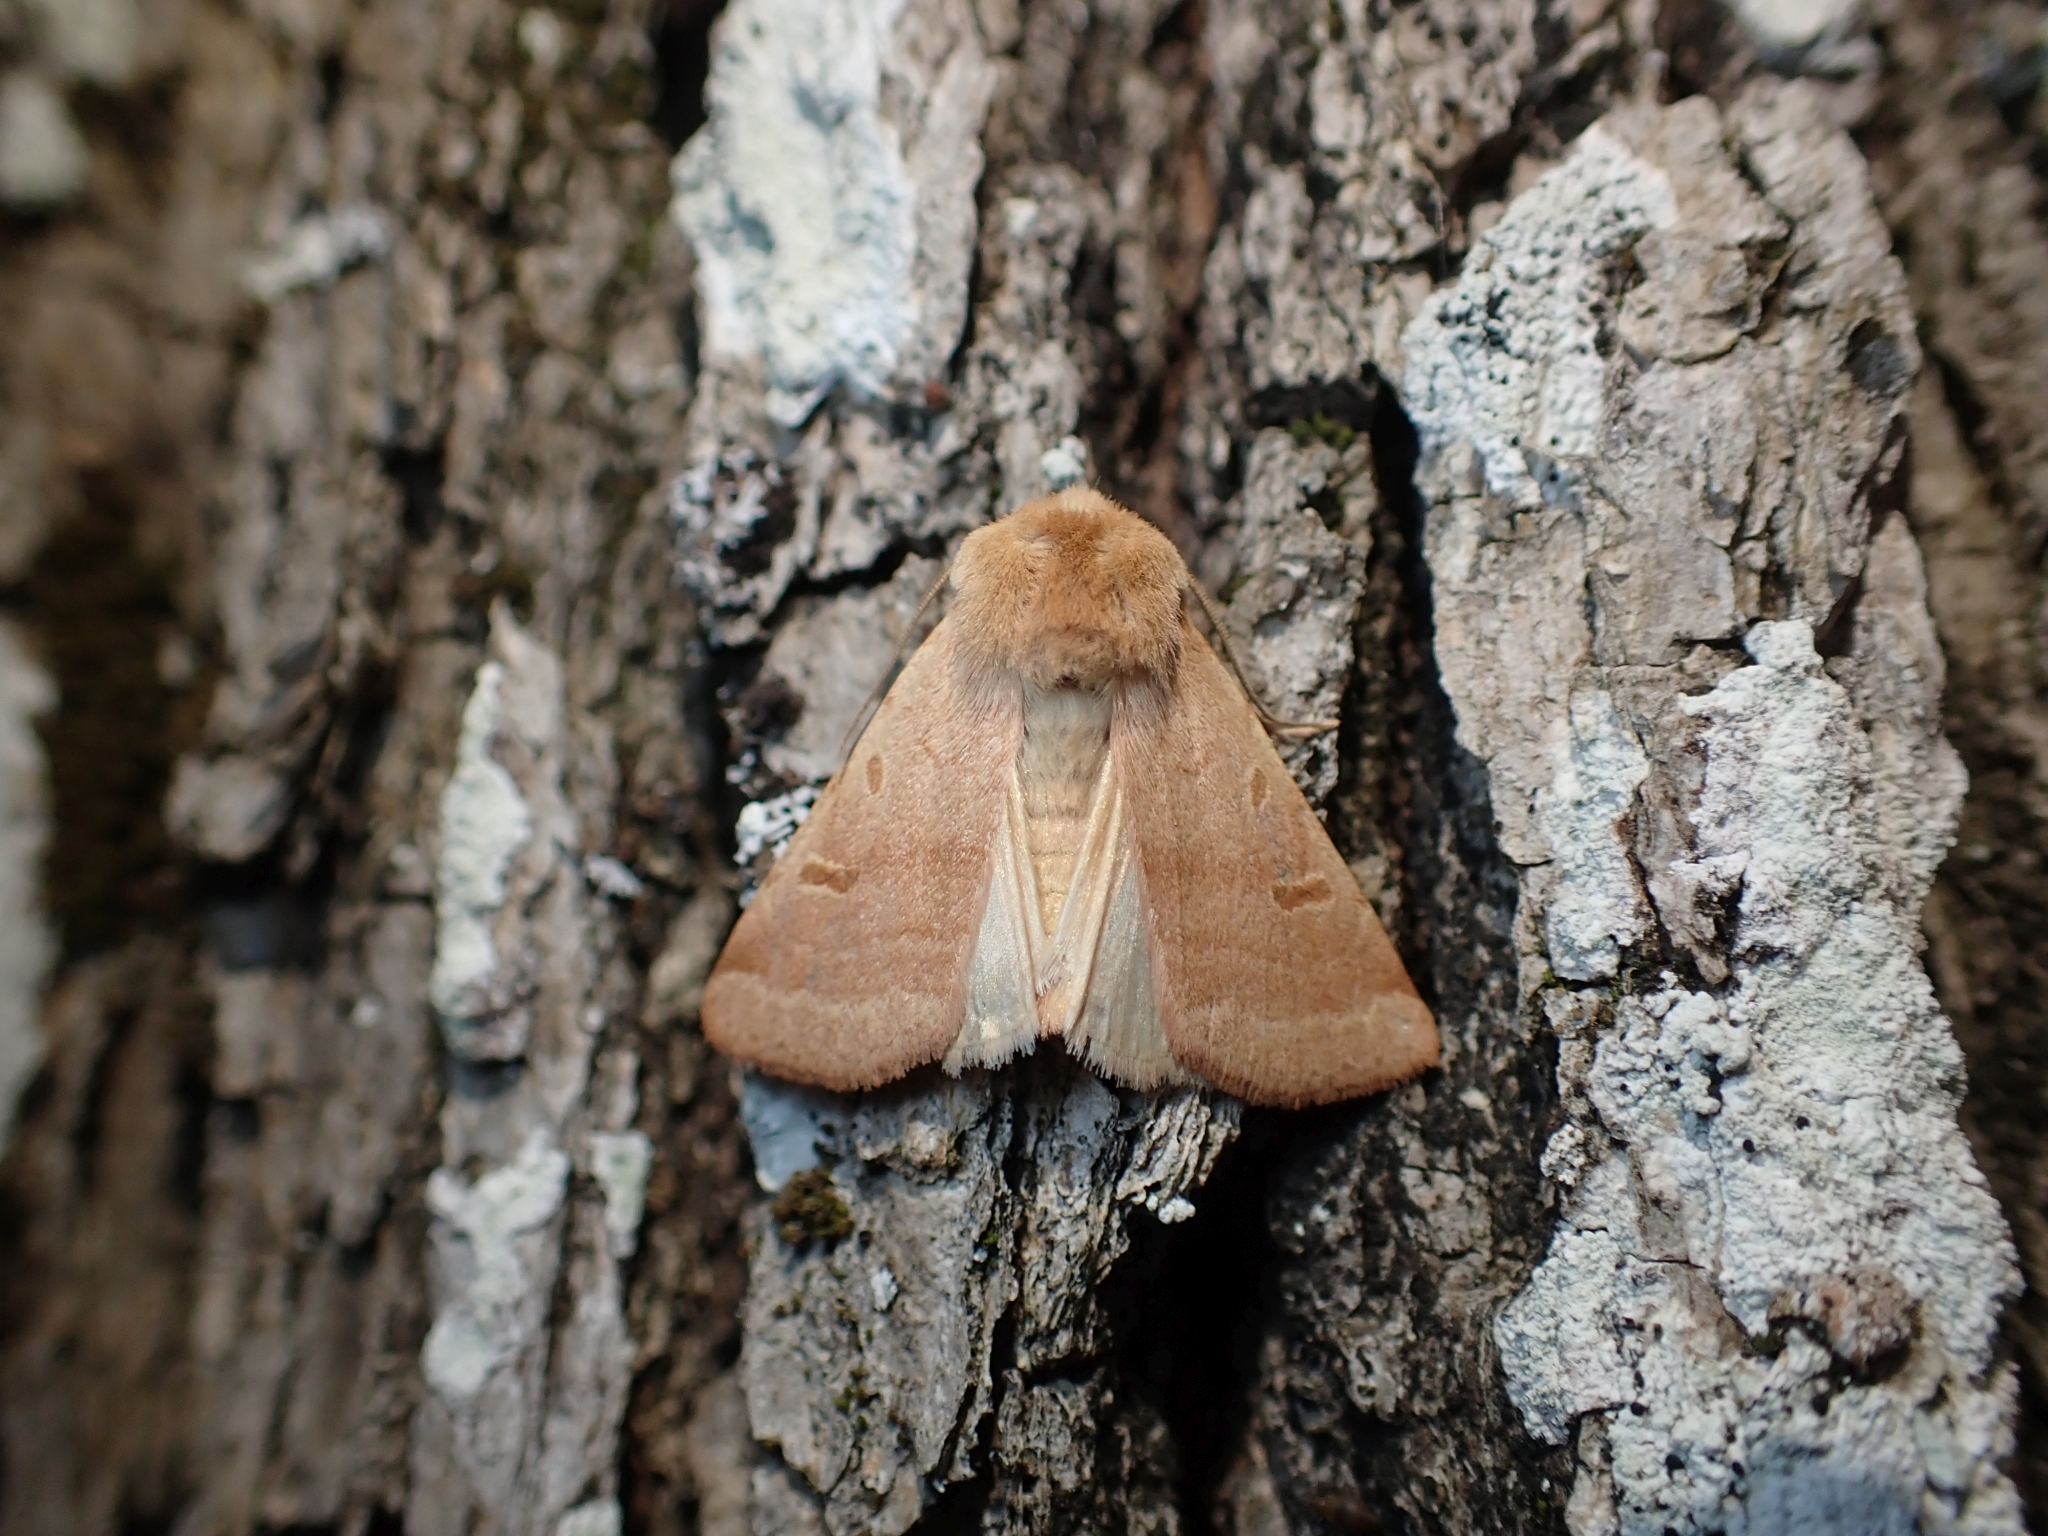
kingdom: Animalia
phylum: Arthropoda
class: Insecta
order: Lepidoptera
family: Noctuidae
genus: Dichagyris
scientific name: Dichagyris variabilis
